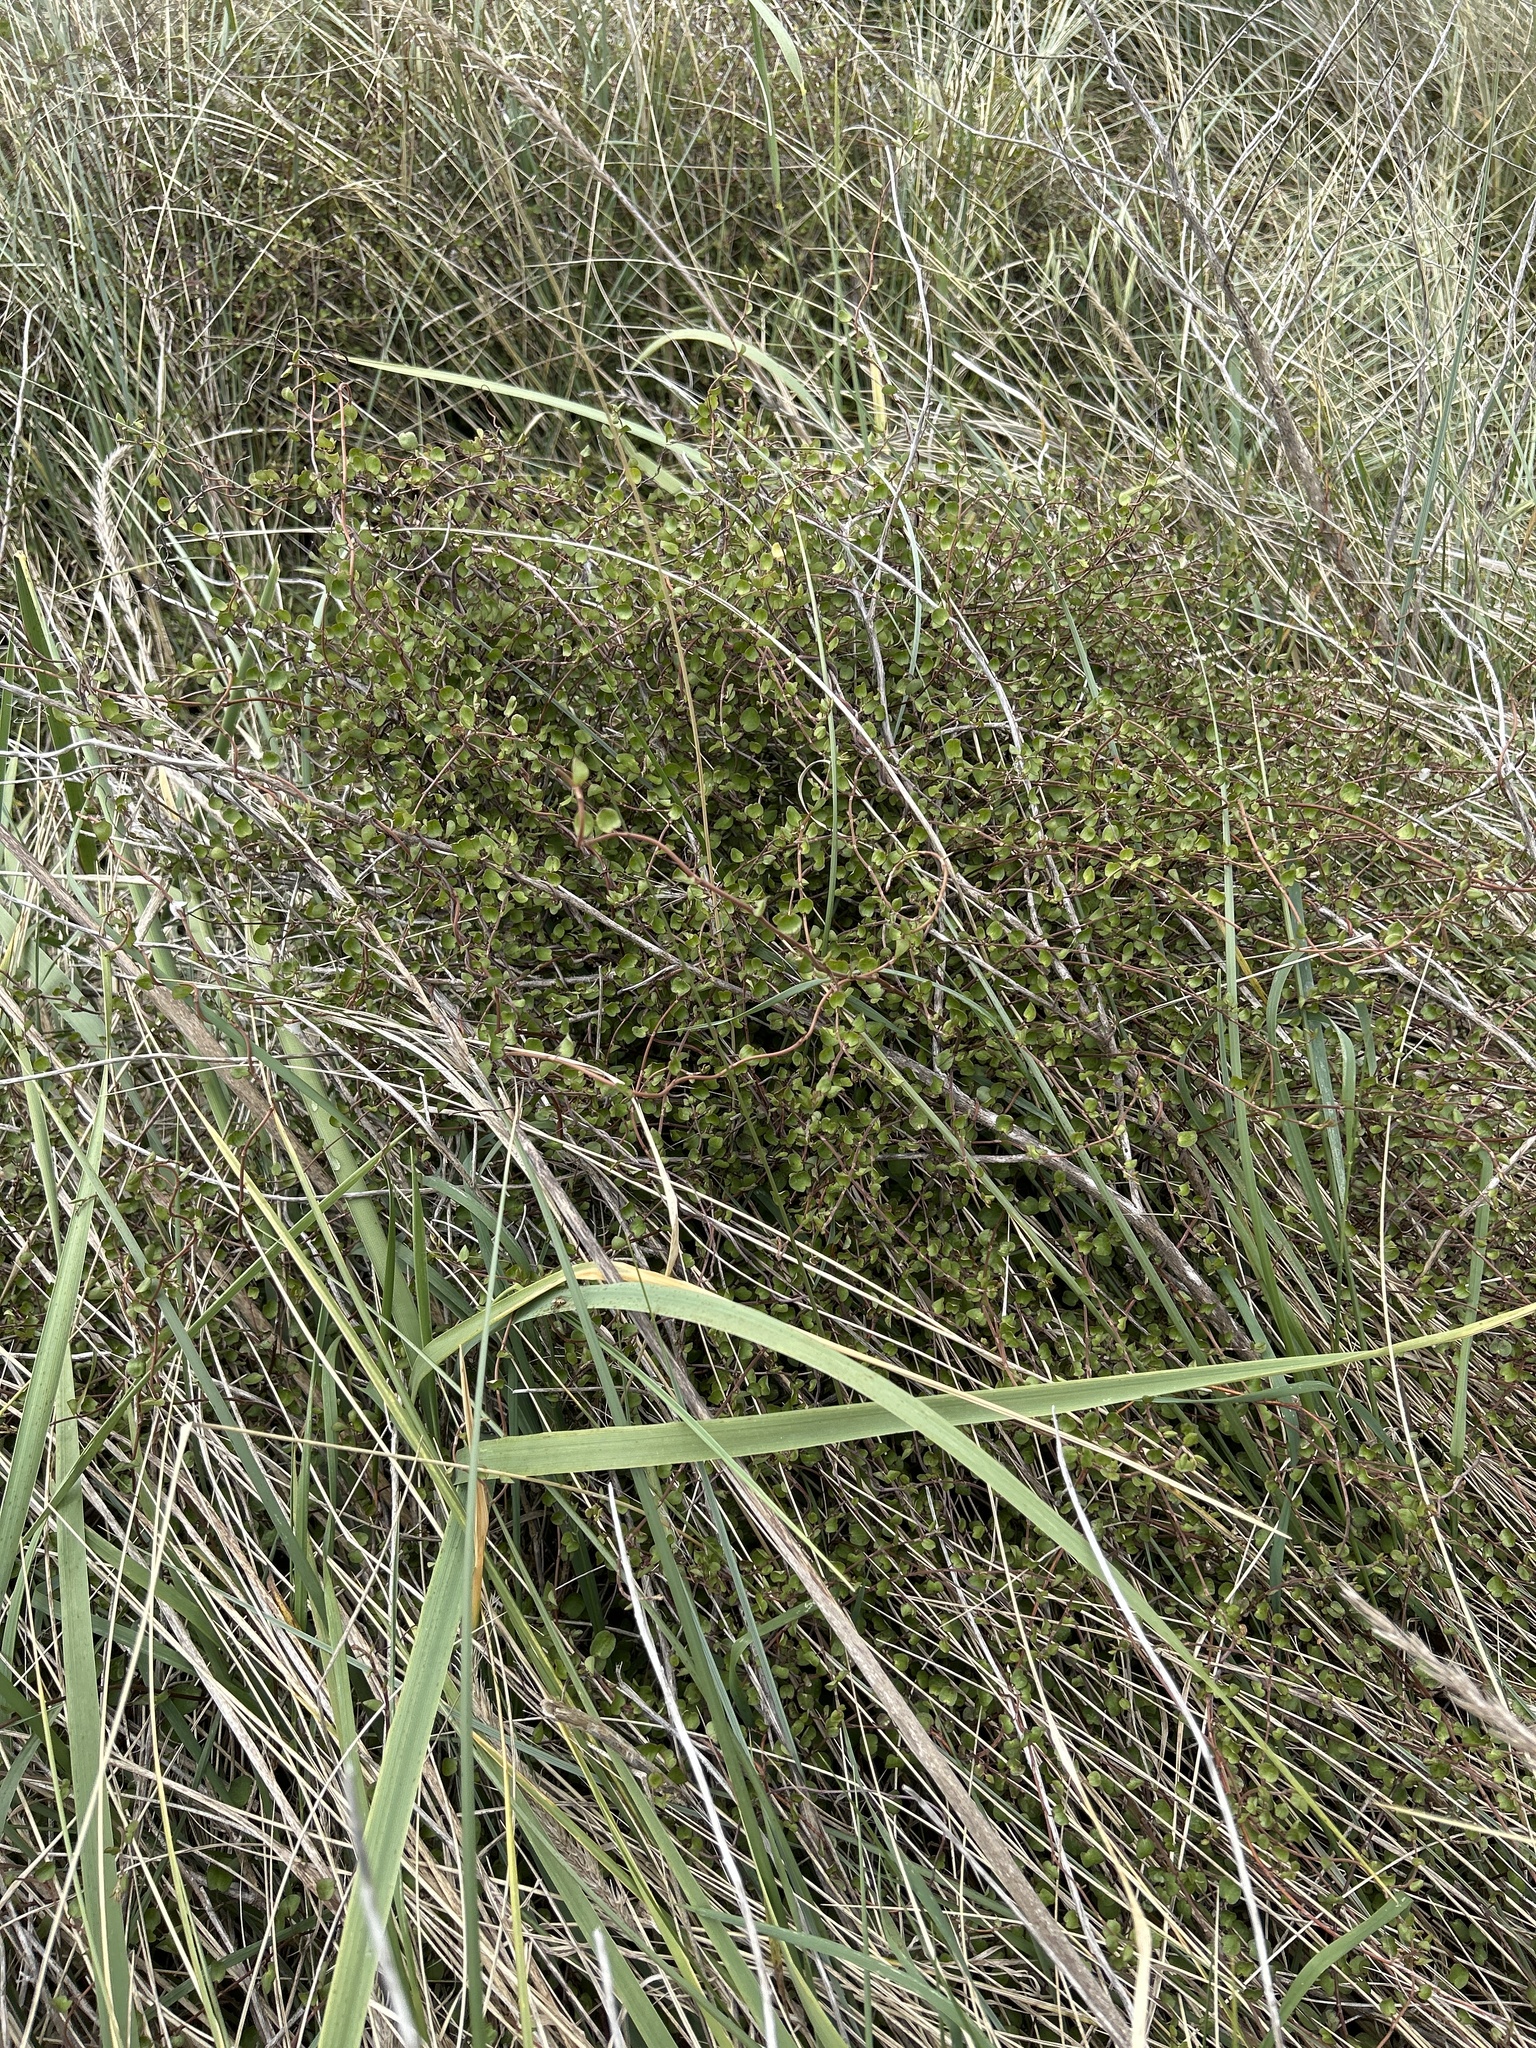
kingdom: Plantae
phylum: Tracheophyta
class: Magnoliopsida
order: Caryophyllales
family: Polygonaceae
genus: Muehlenbeckia
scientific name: Muehlenbeckia complexa
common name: Wireplant
